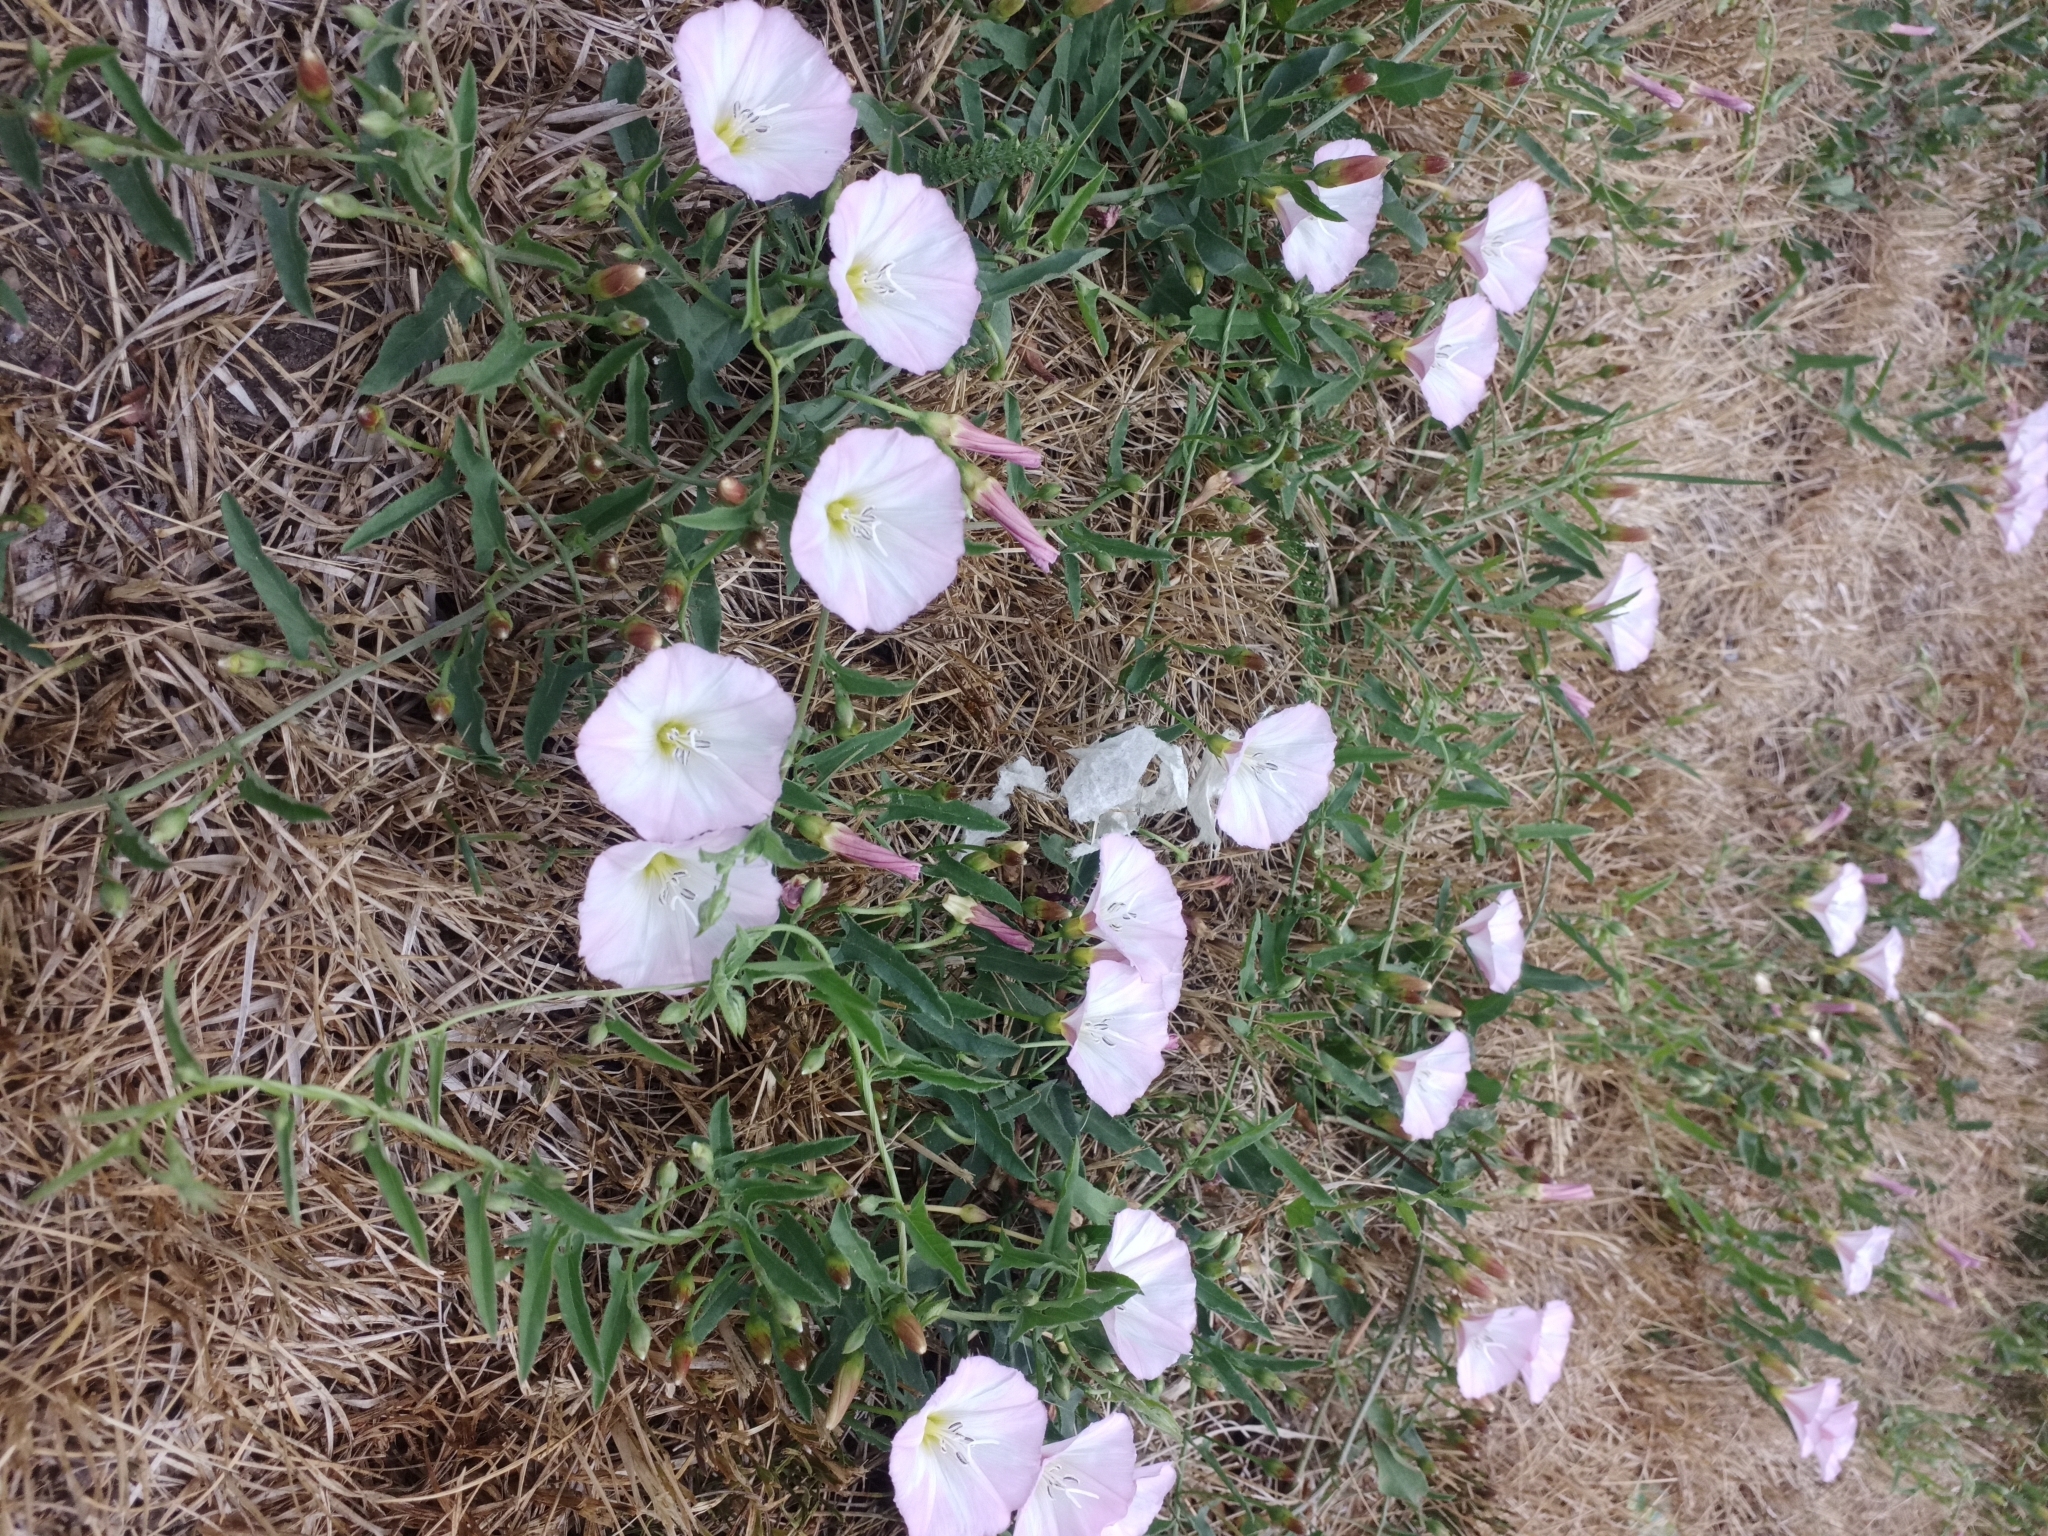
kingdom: Plantae
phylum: Tracheophyta
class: Magnoliopsida
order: Solanales
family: Convolvulaceae
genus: Convolvulus
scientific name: Convolvulus arvensis
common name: Field bindweed
